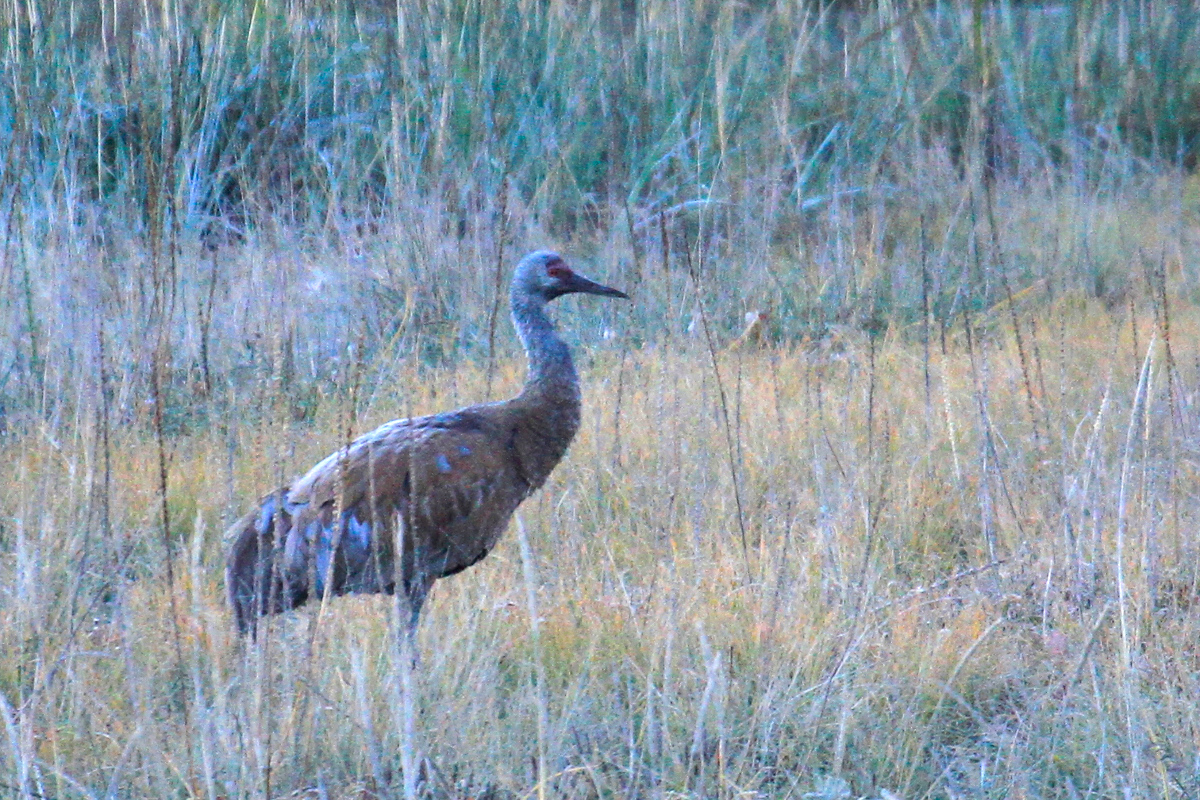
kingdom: Animalia
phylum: Chordata
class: Aves
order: Gruiformes
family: Gruidae
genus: Grus
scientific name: Grus canadensis
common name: Sandhill crane
